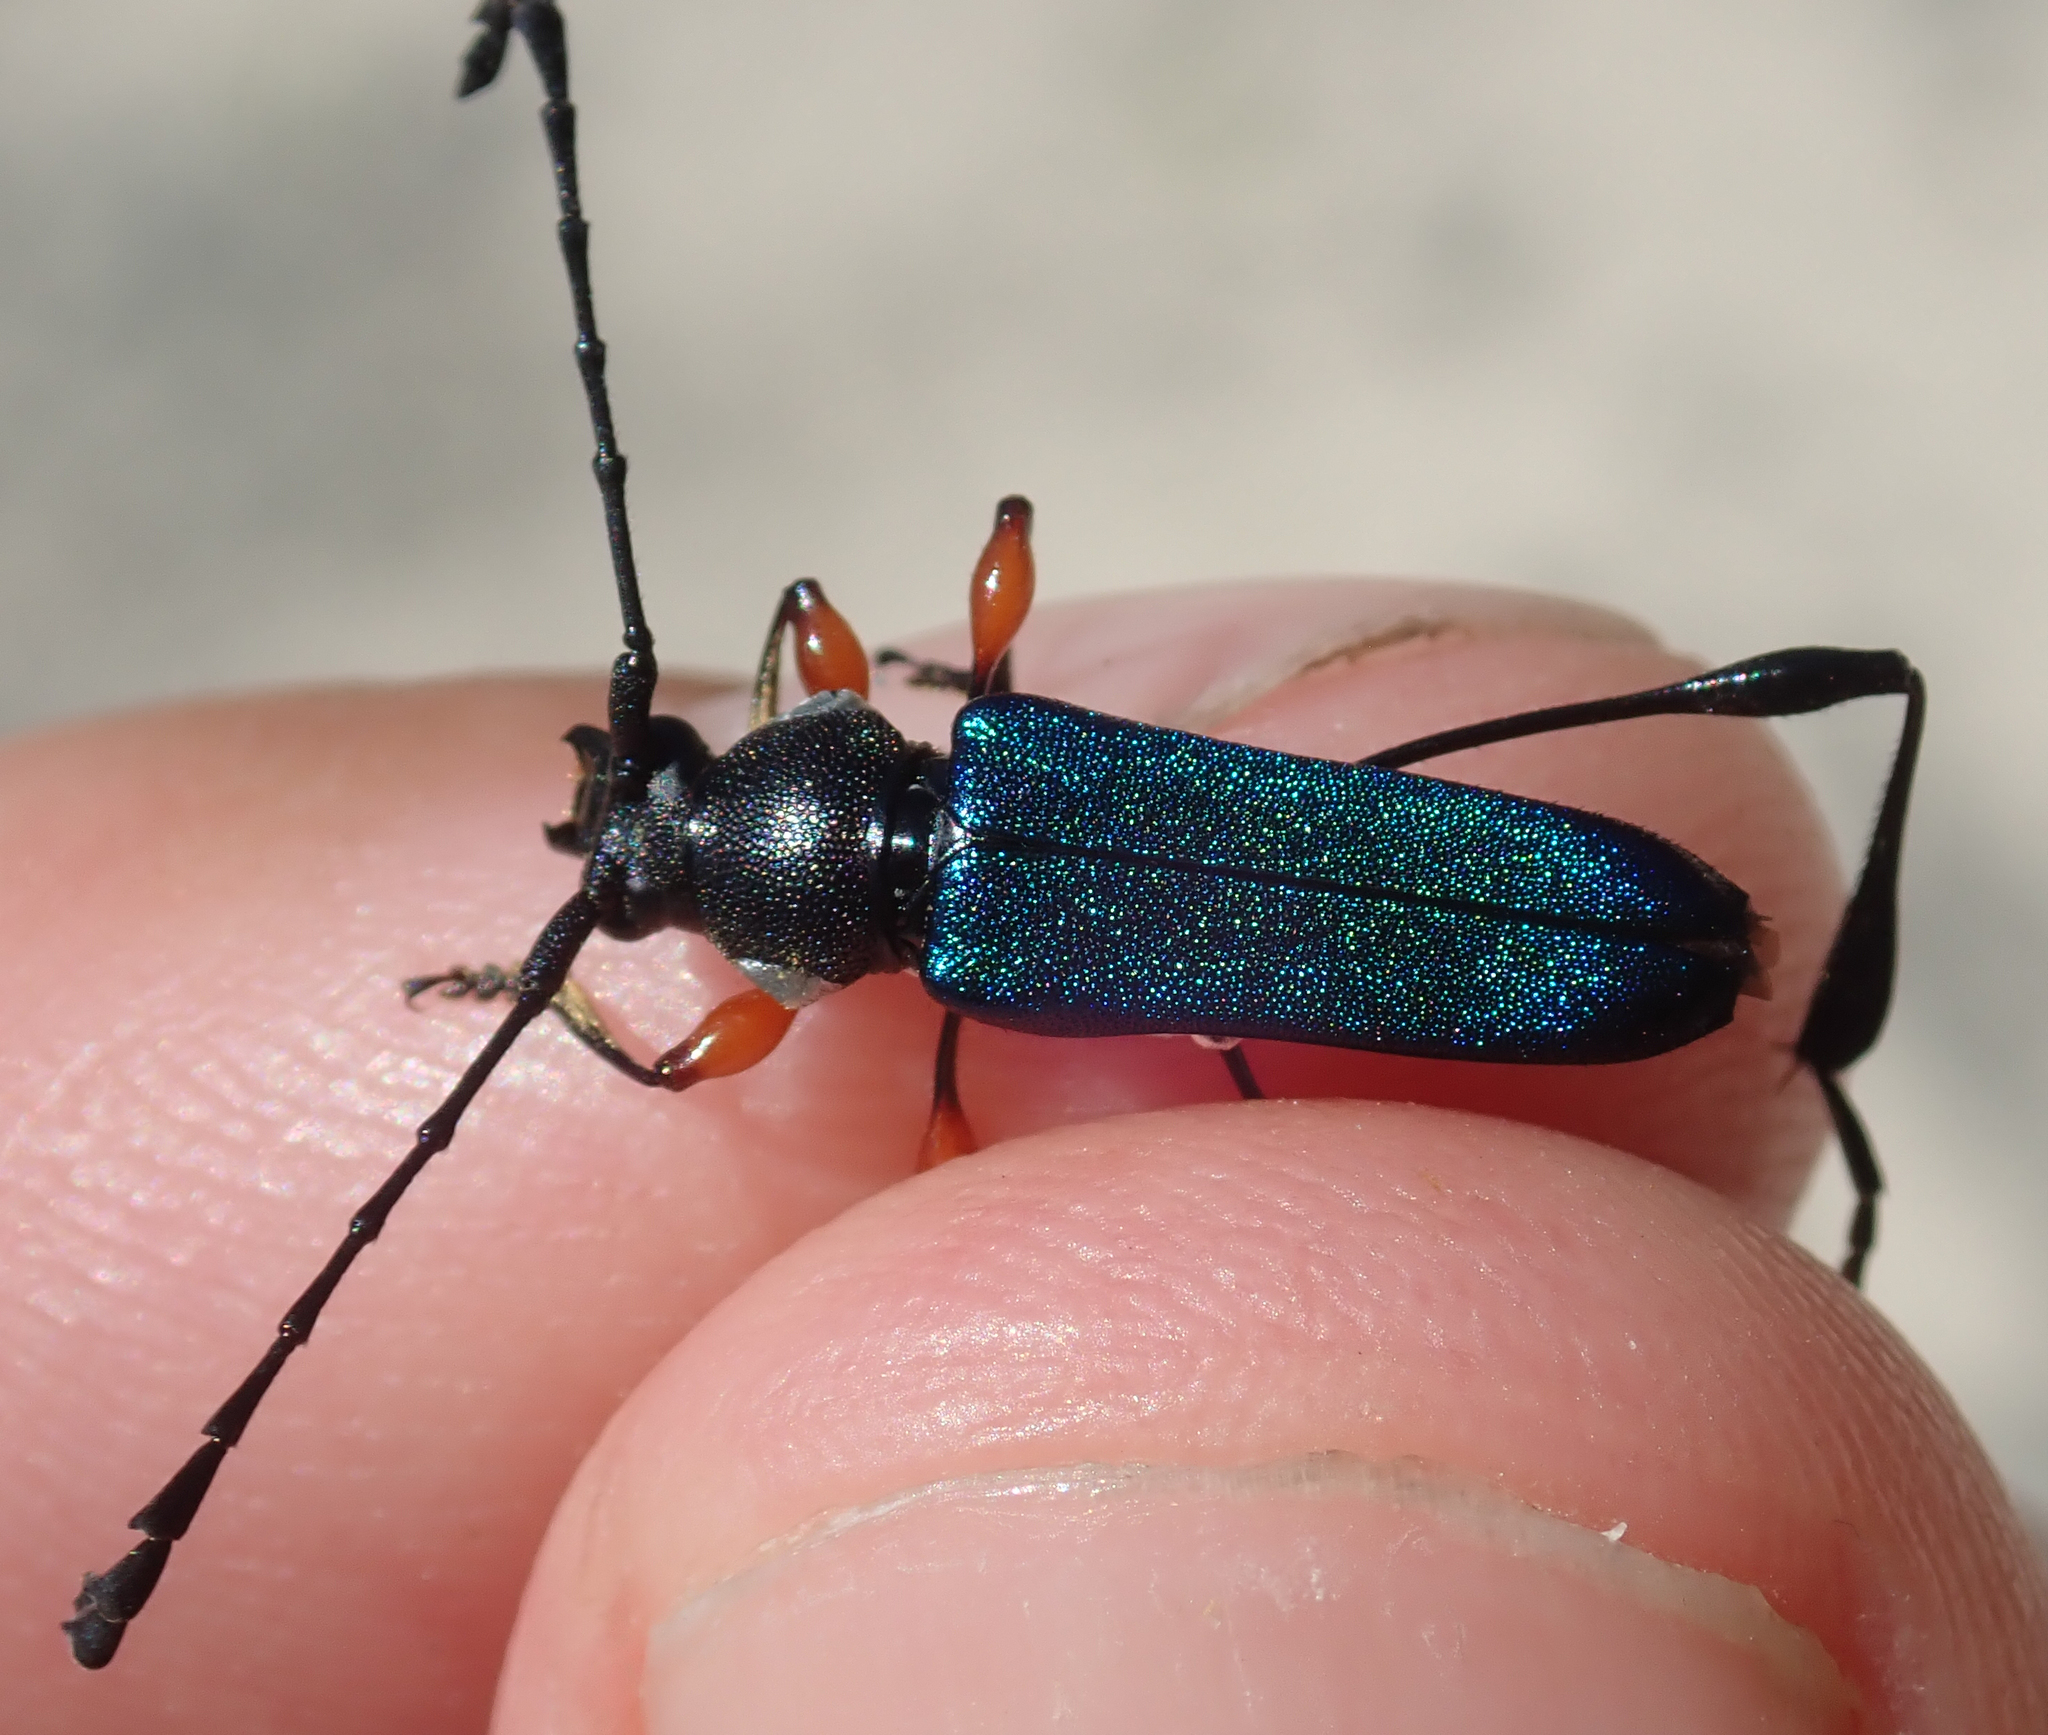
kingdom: Animalia
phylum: Arthropoda
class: Insecta
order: Coleoptera
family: Cerambycidae
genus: Helymaeus
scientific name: Helymaeus notaticollis
